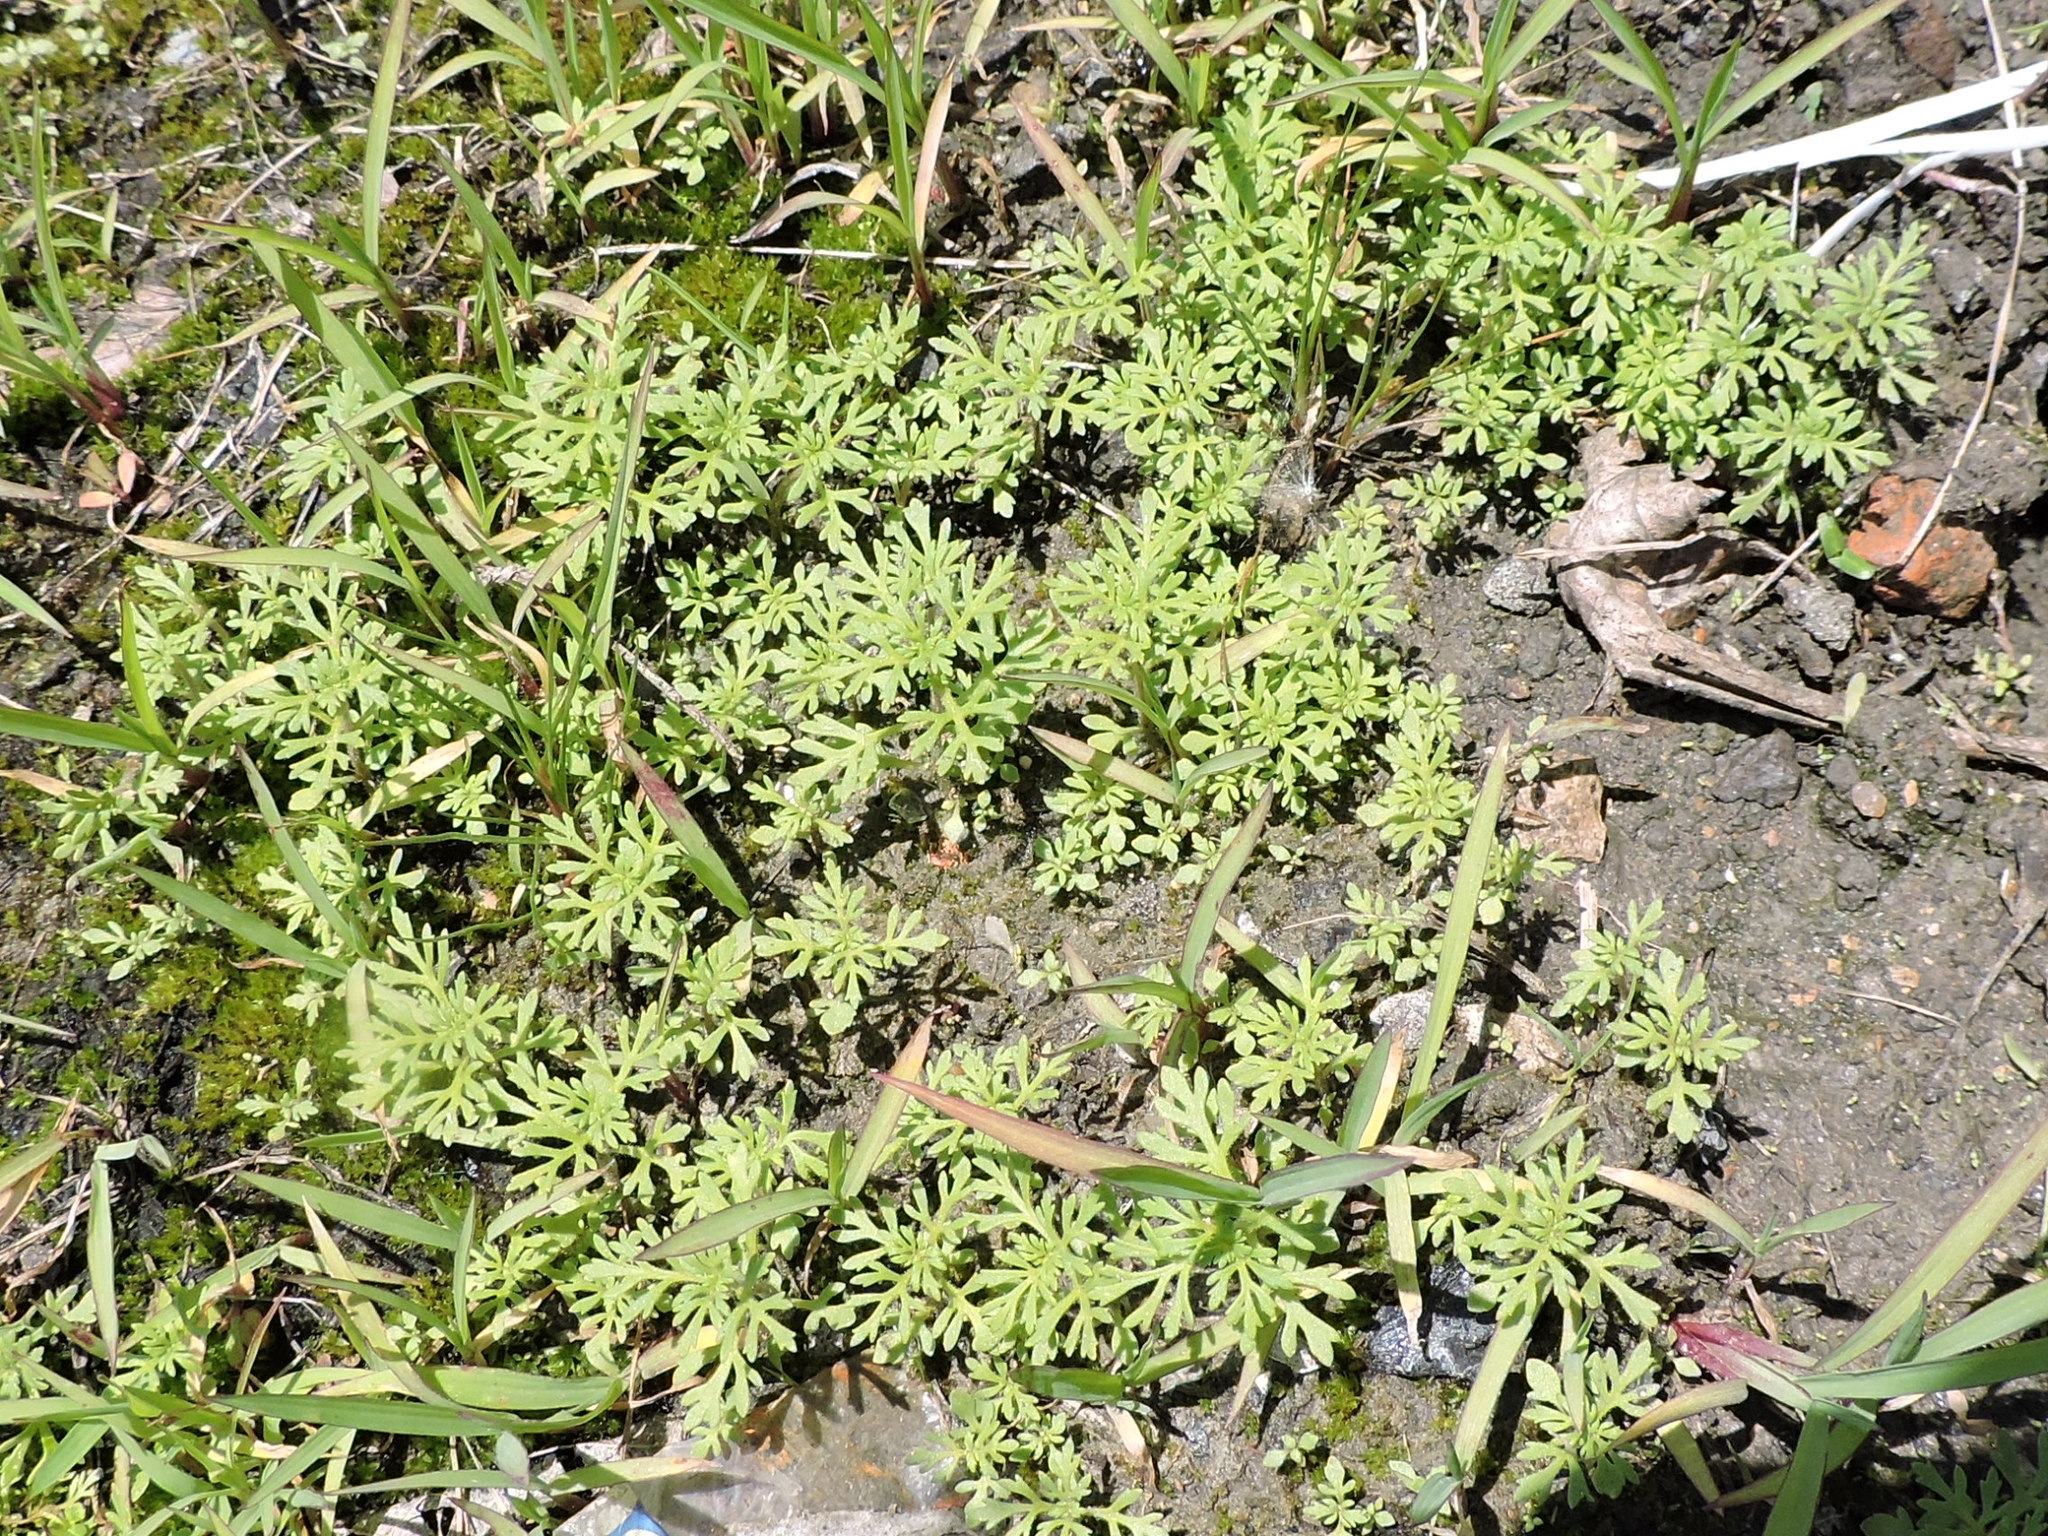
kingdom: Plantae
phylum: Tracheophyta
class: Magnoliopsida
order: Lamiales
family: Plantaginaceae
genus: Leucospora
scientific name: Leucospora multifida
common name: Narrow-leaf paleseed
